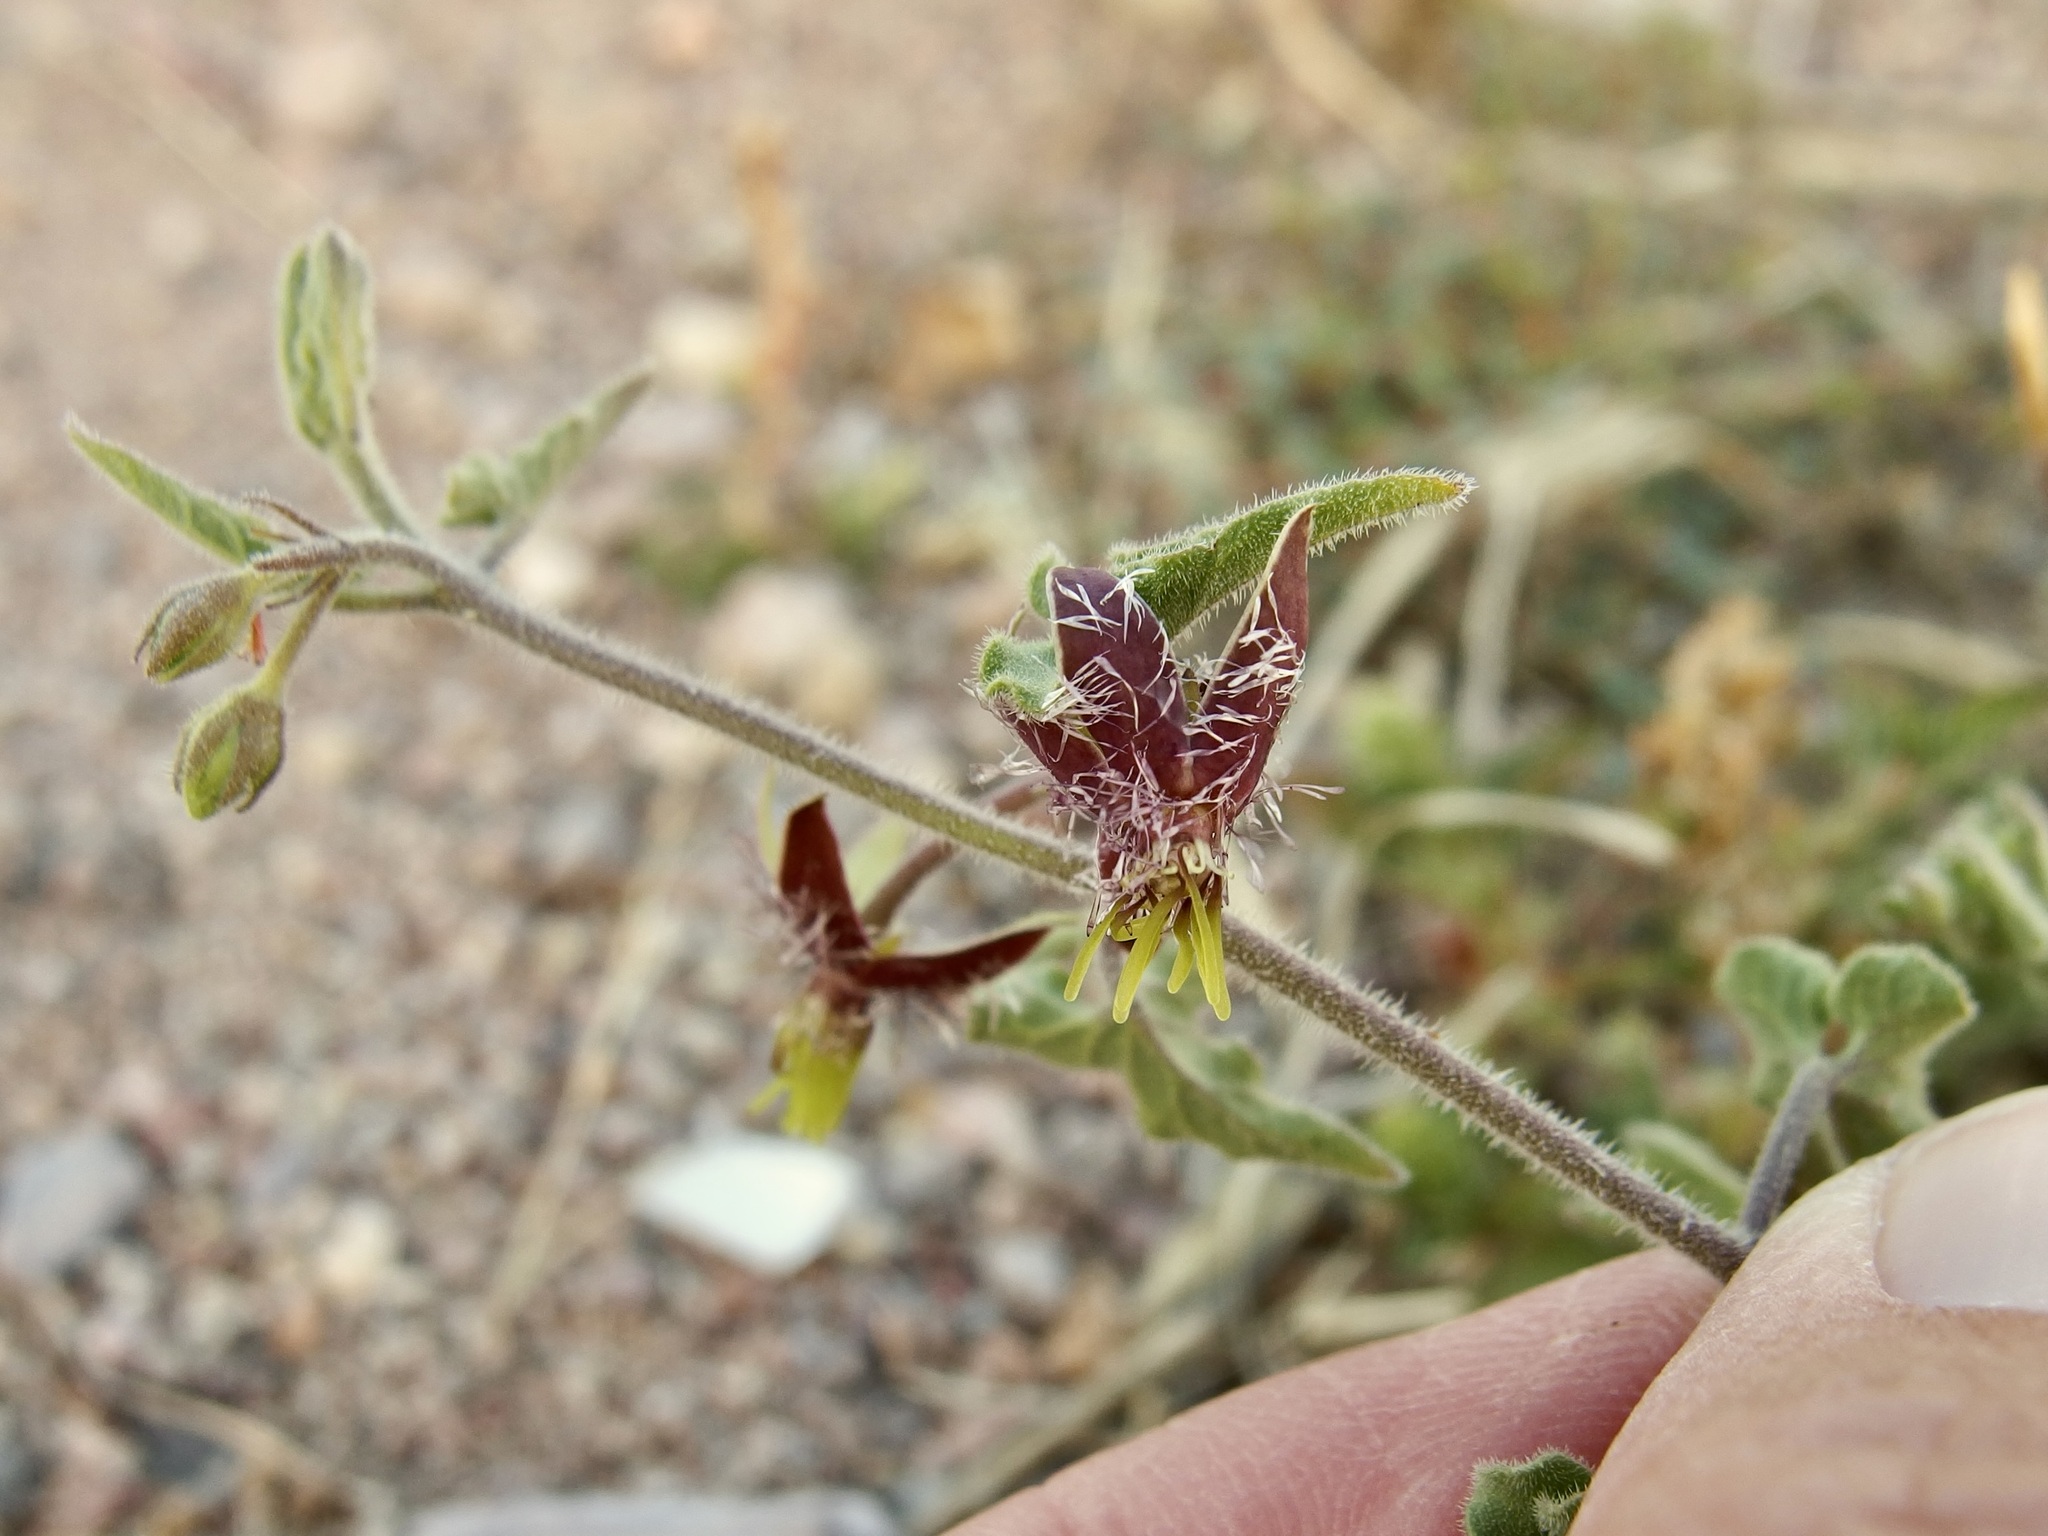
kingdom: Plantae
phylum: Tracheophyta
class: Magnoliopsida
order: Gentianales
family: Apocynaceae
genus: Metastelma
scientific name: Metastelma pringlei
